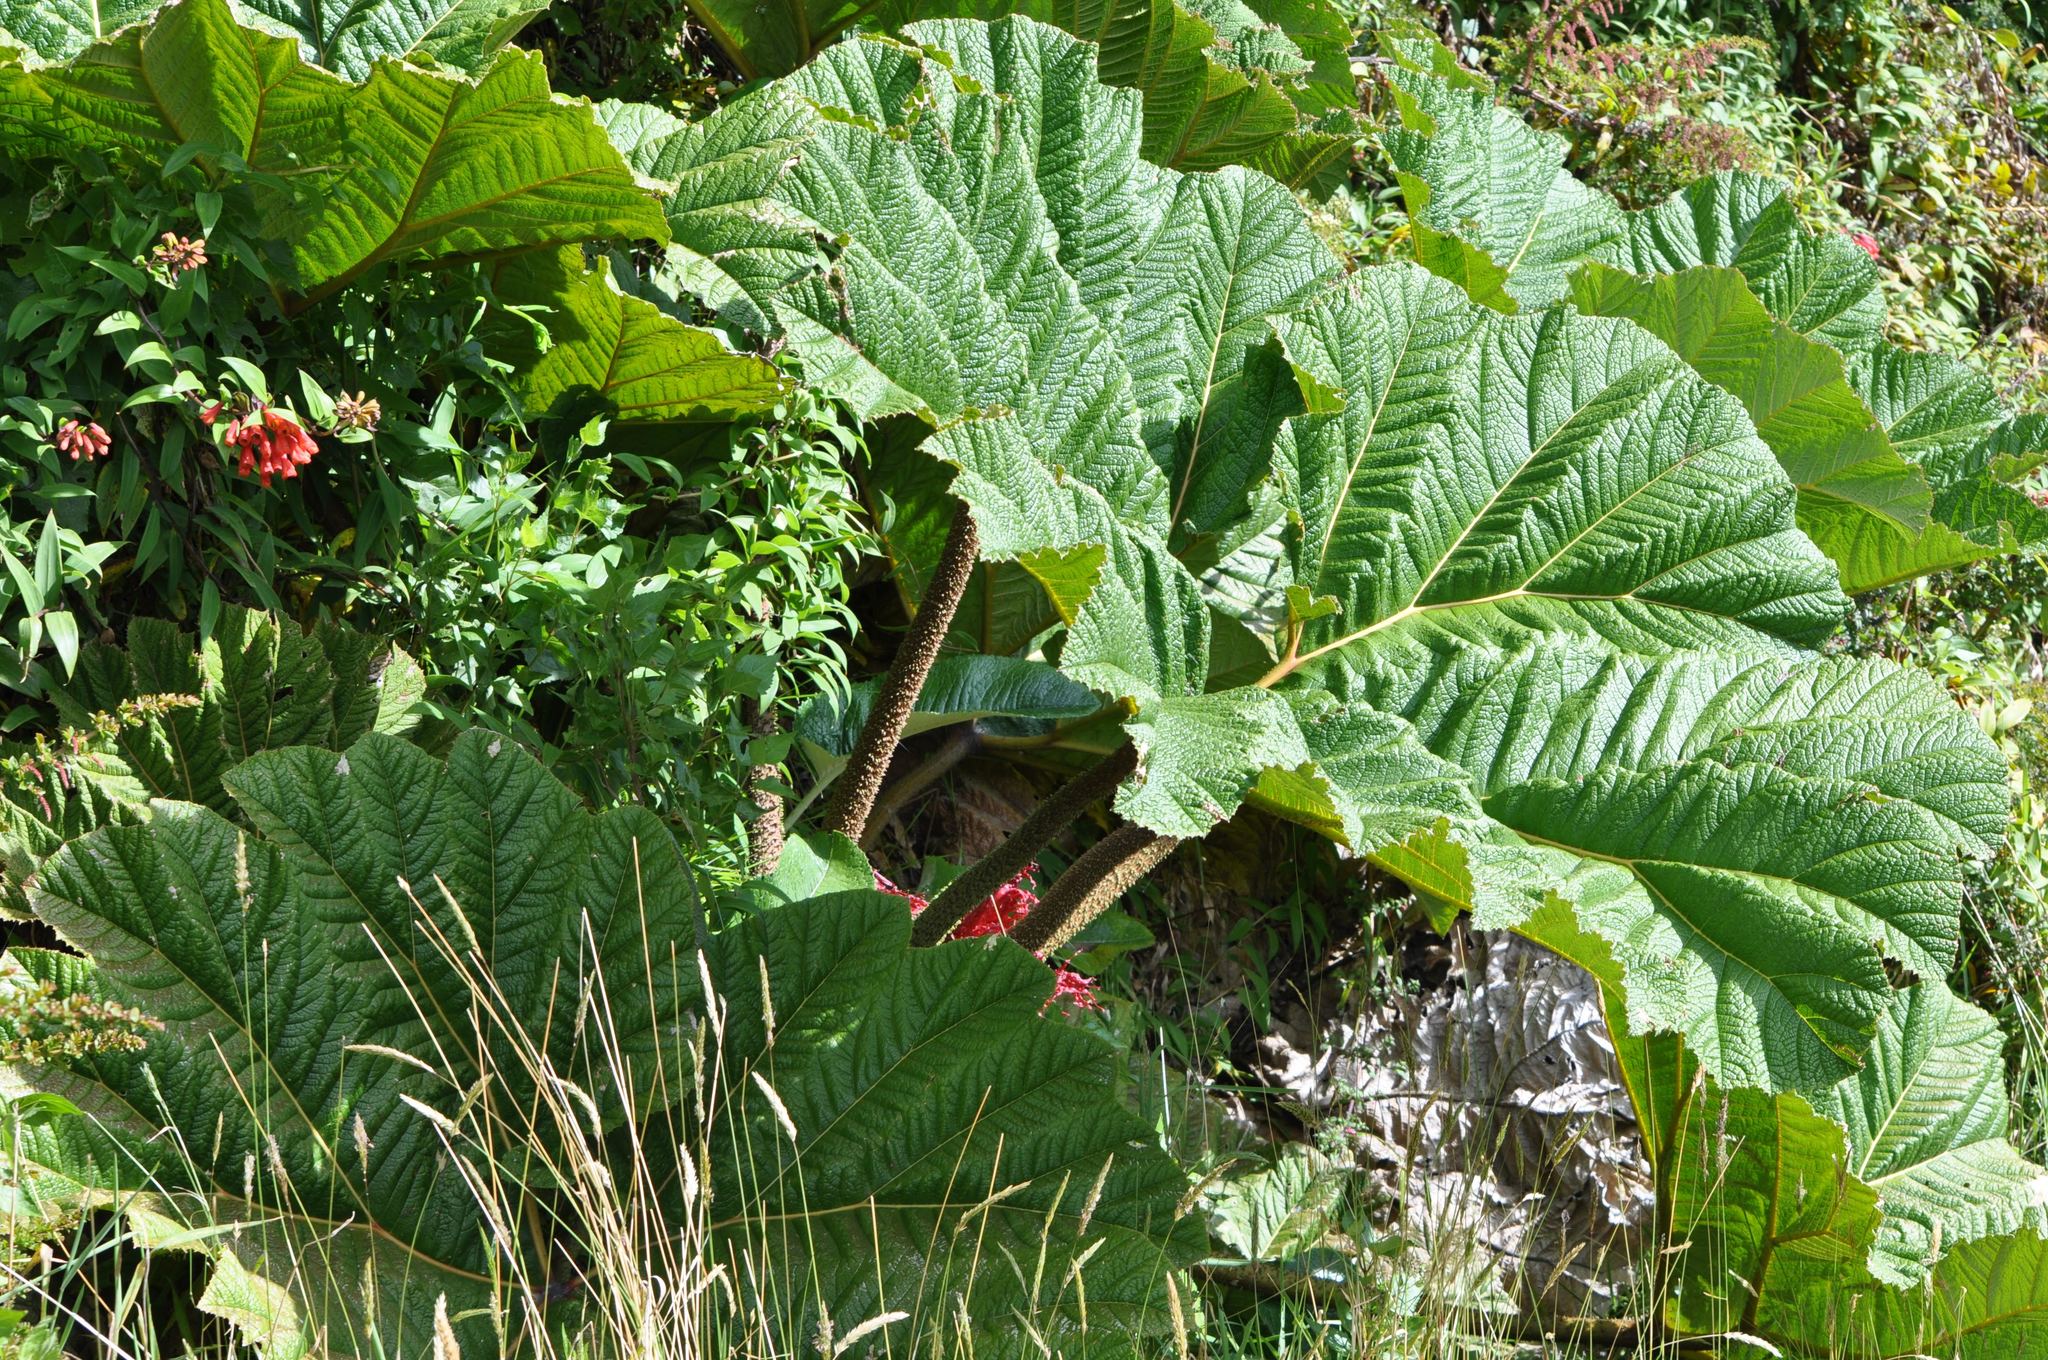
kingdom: Plantae
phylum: Tracheophyta
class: Magnoliopsida
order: Gunnerales
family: Gunneraceae
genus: Gunnera
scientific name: Gunnera insignis
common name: Poorman's umbrella
